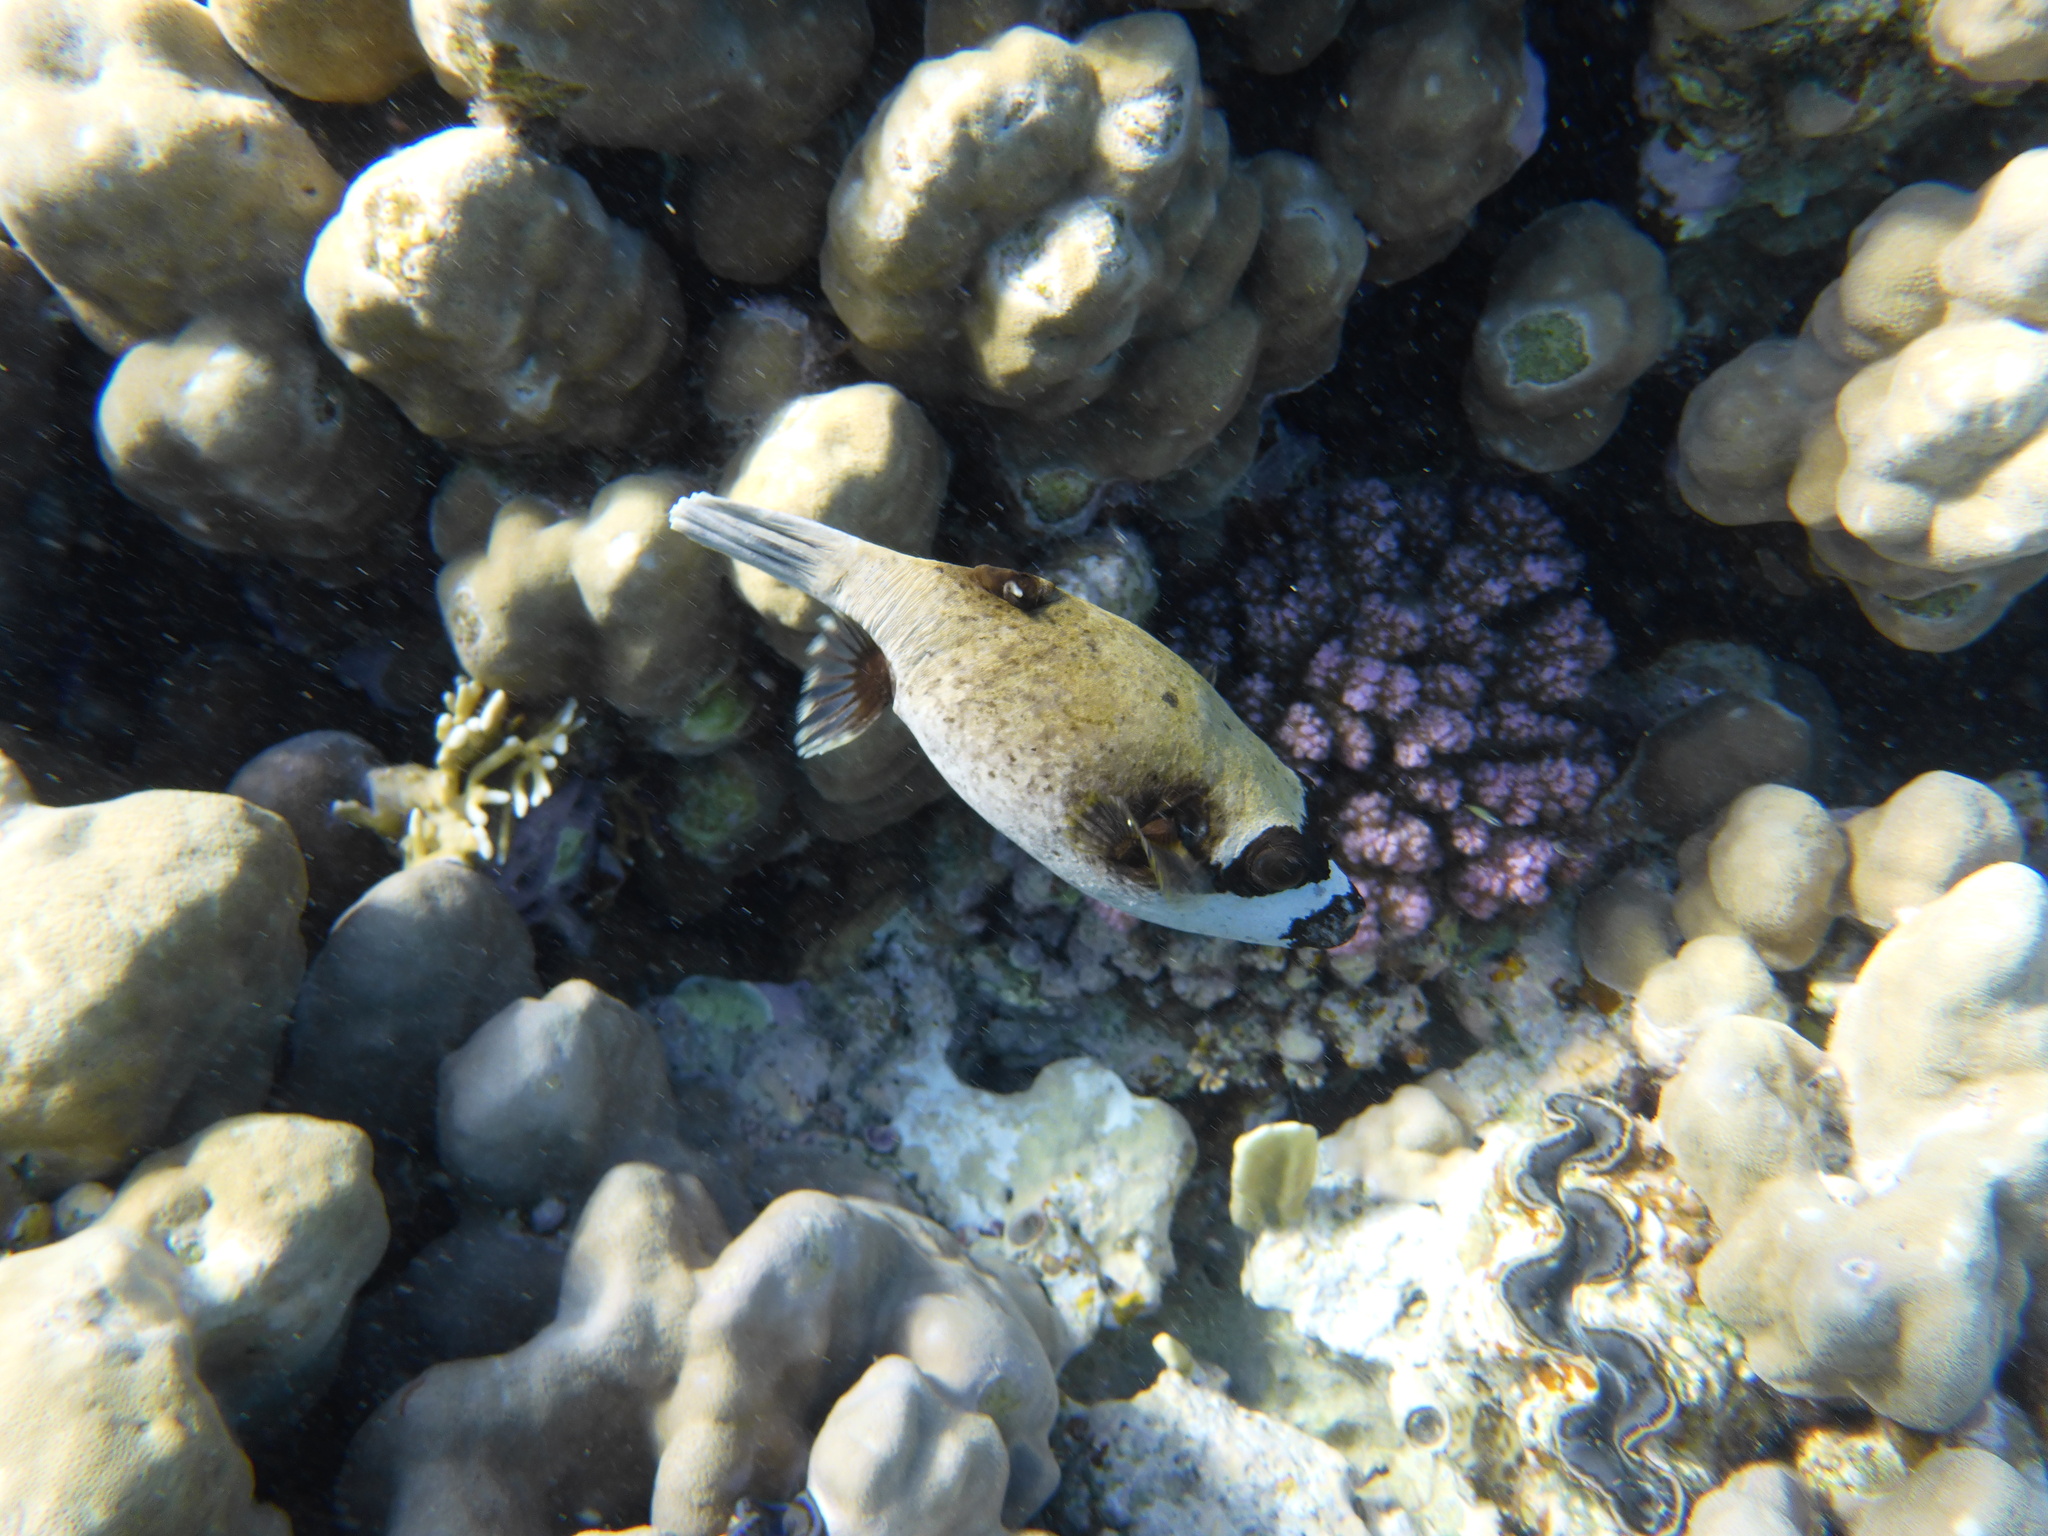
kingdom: Animalia
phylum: Chordata
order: Tetraodontiformes
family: Tetraodontidae
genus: Arothron
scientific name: Arothron diadematus
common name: Masked puffer
